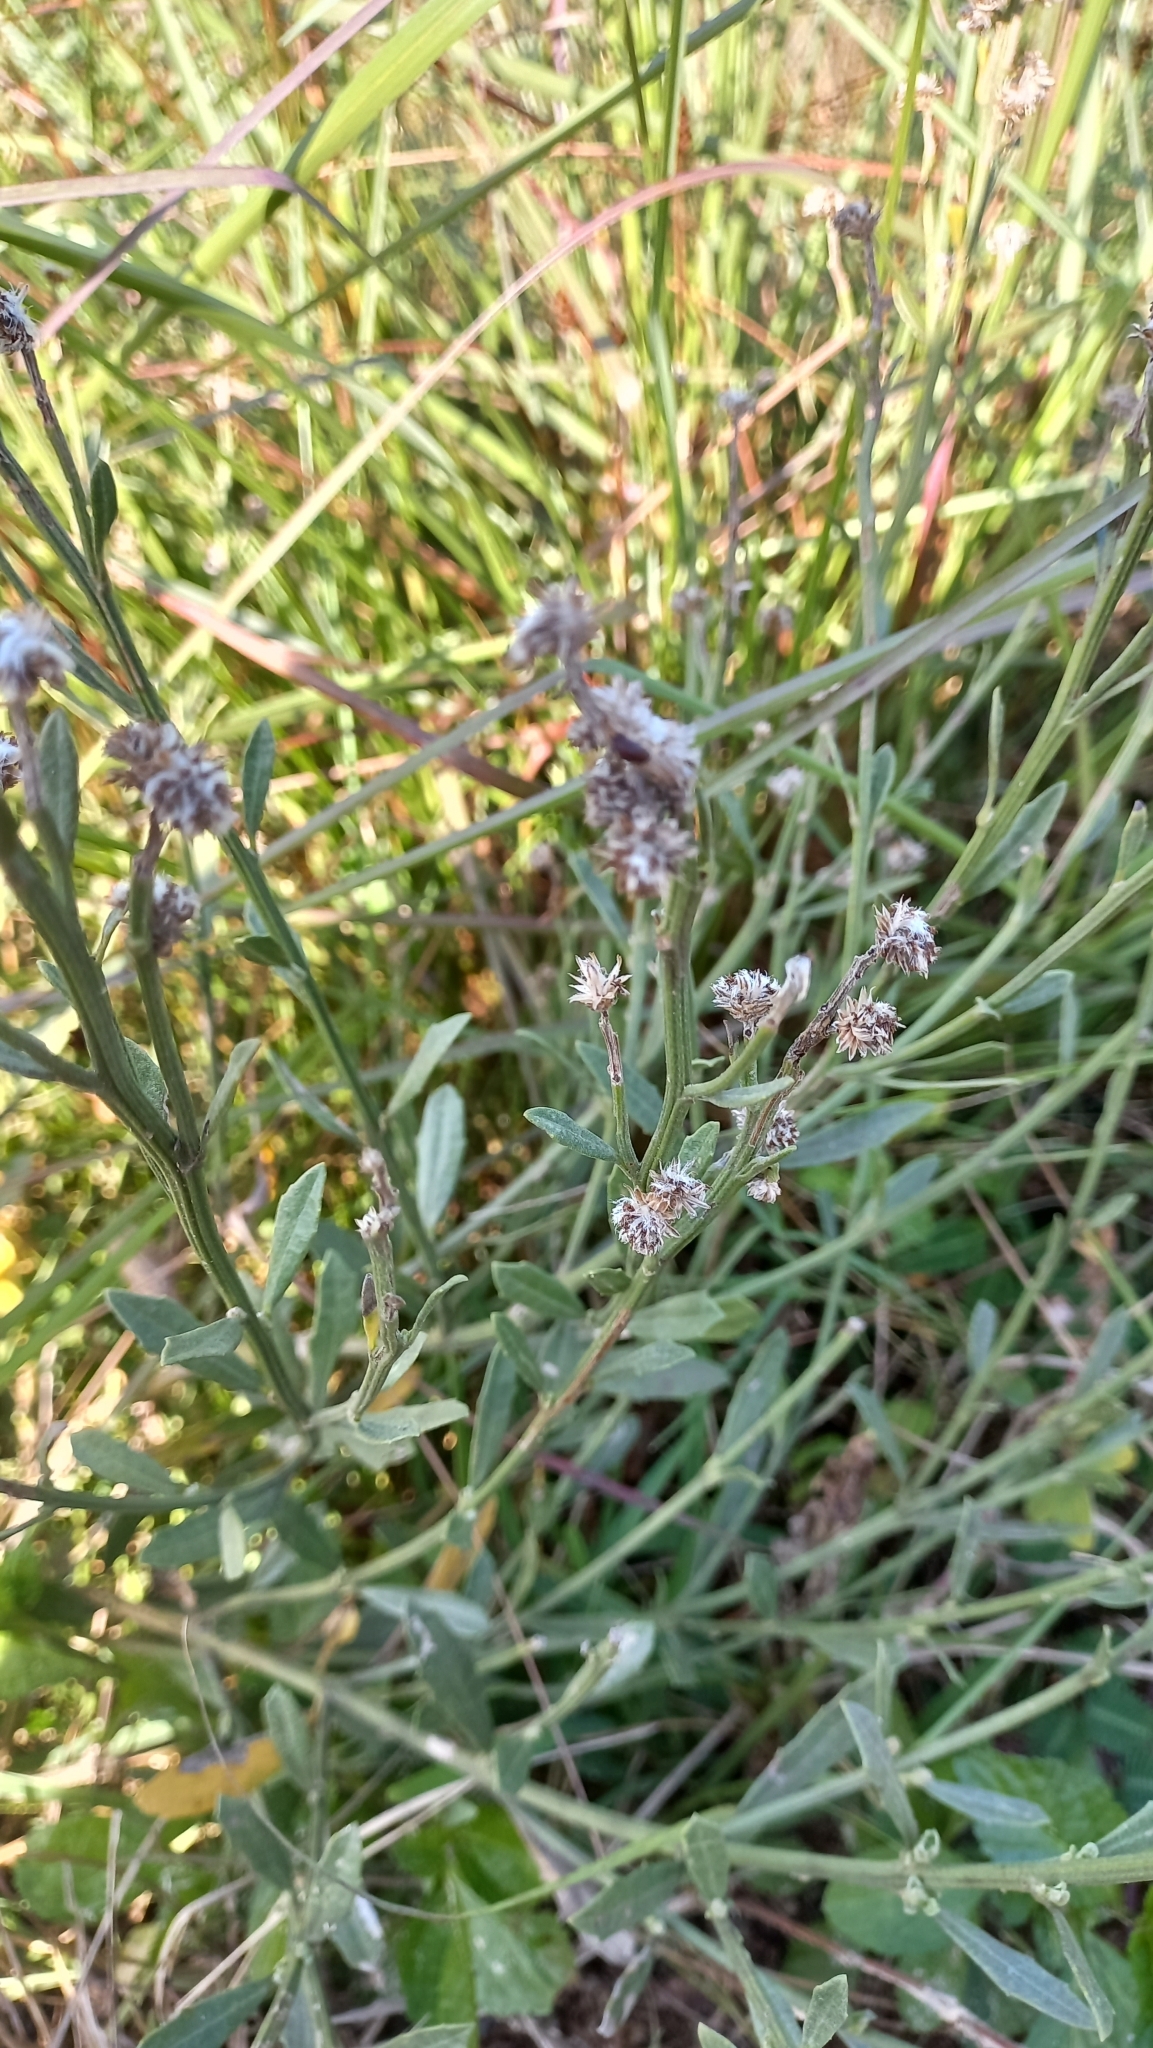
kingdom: Plantae
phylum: Tracheophyta
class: Magnoliopsida
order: Asterales
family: Asteraceae
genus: Baccharis
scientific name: Baccharis spicata
